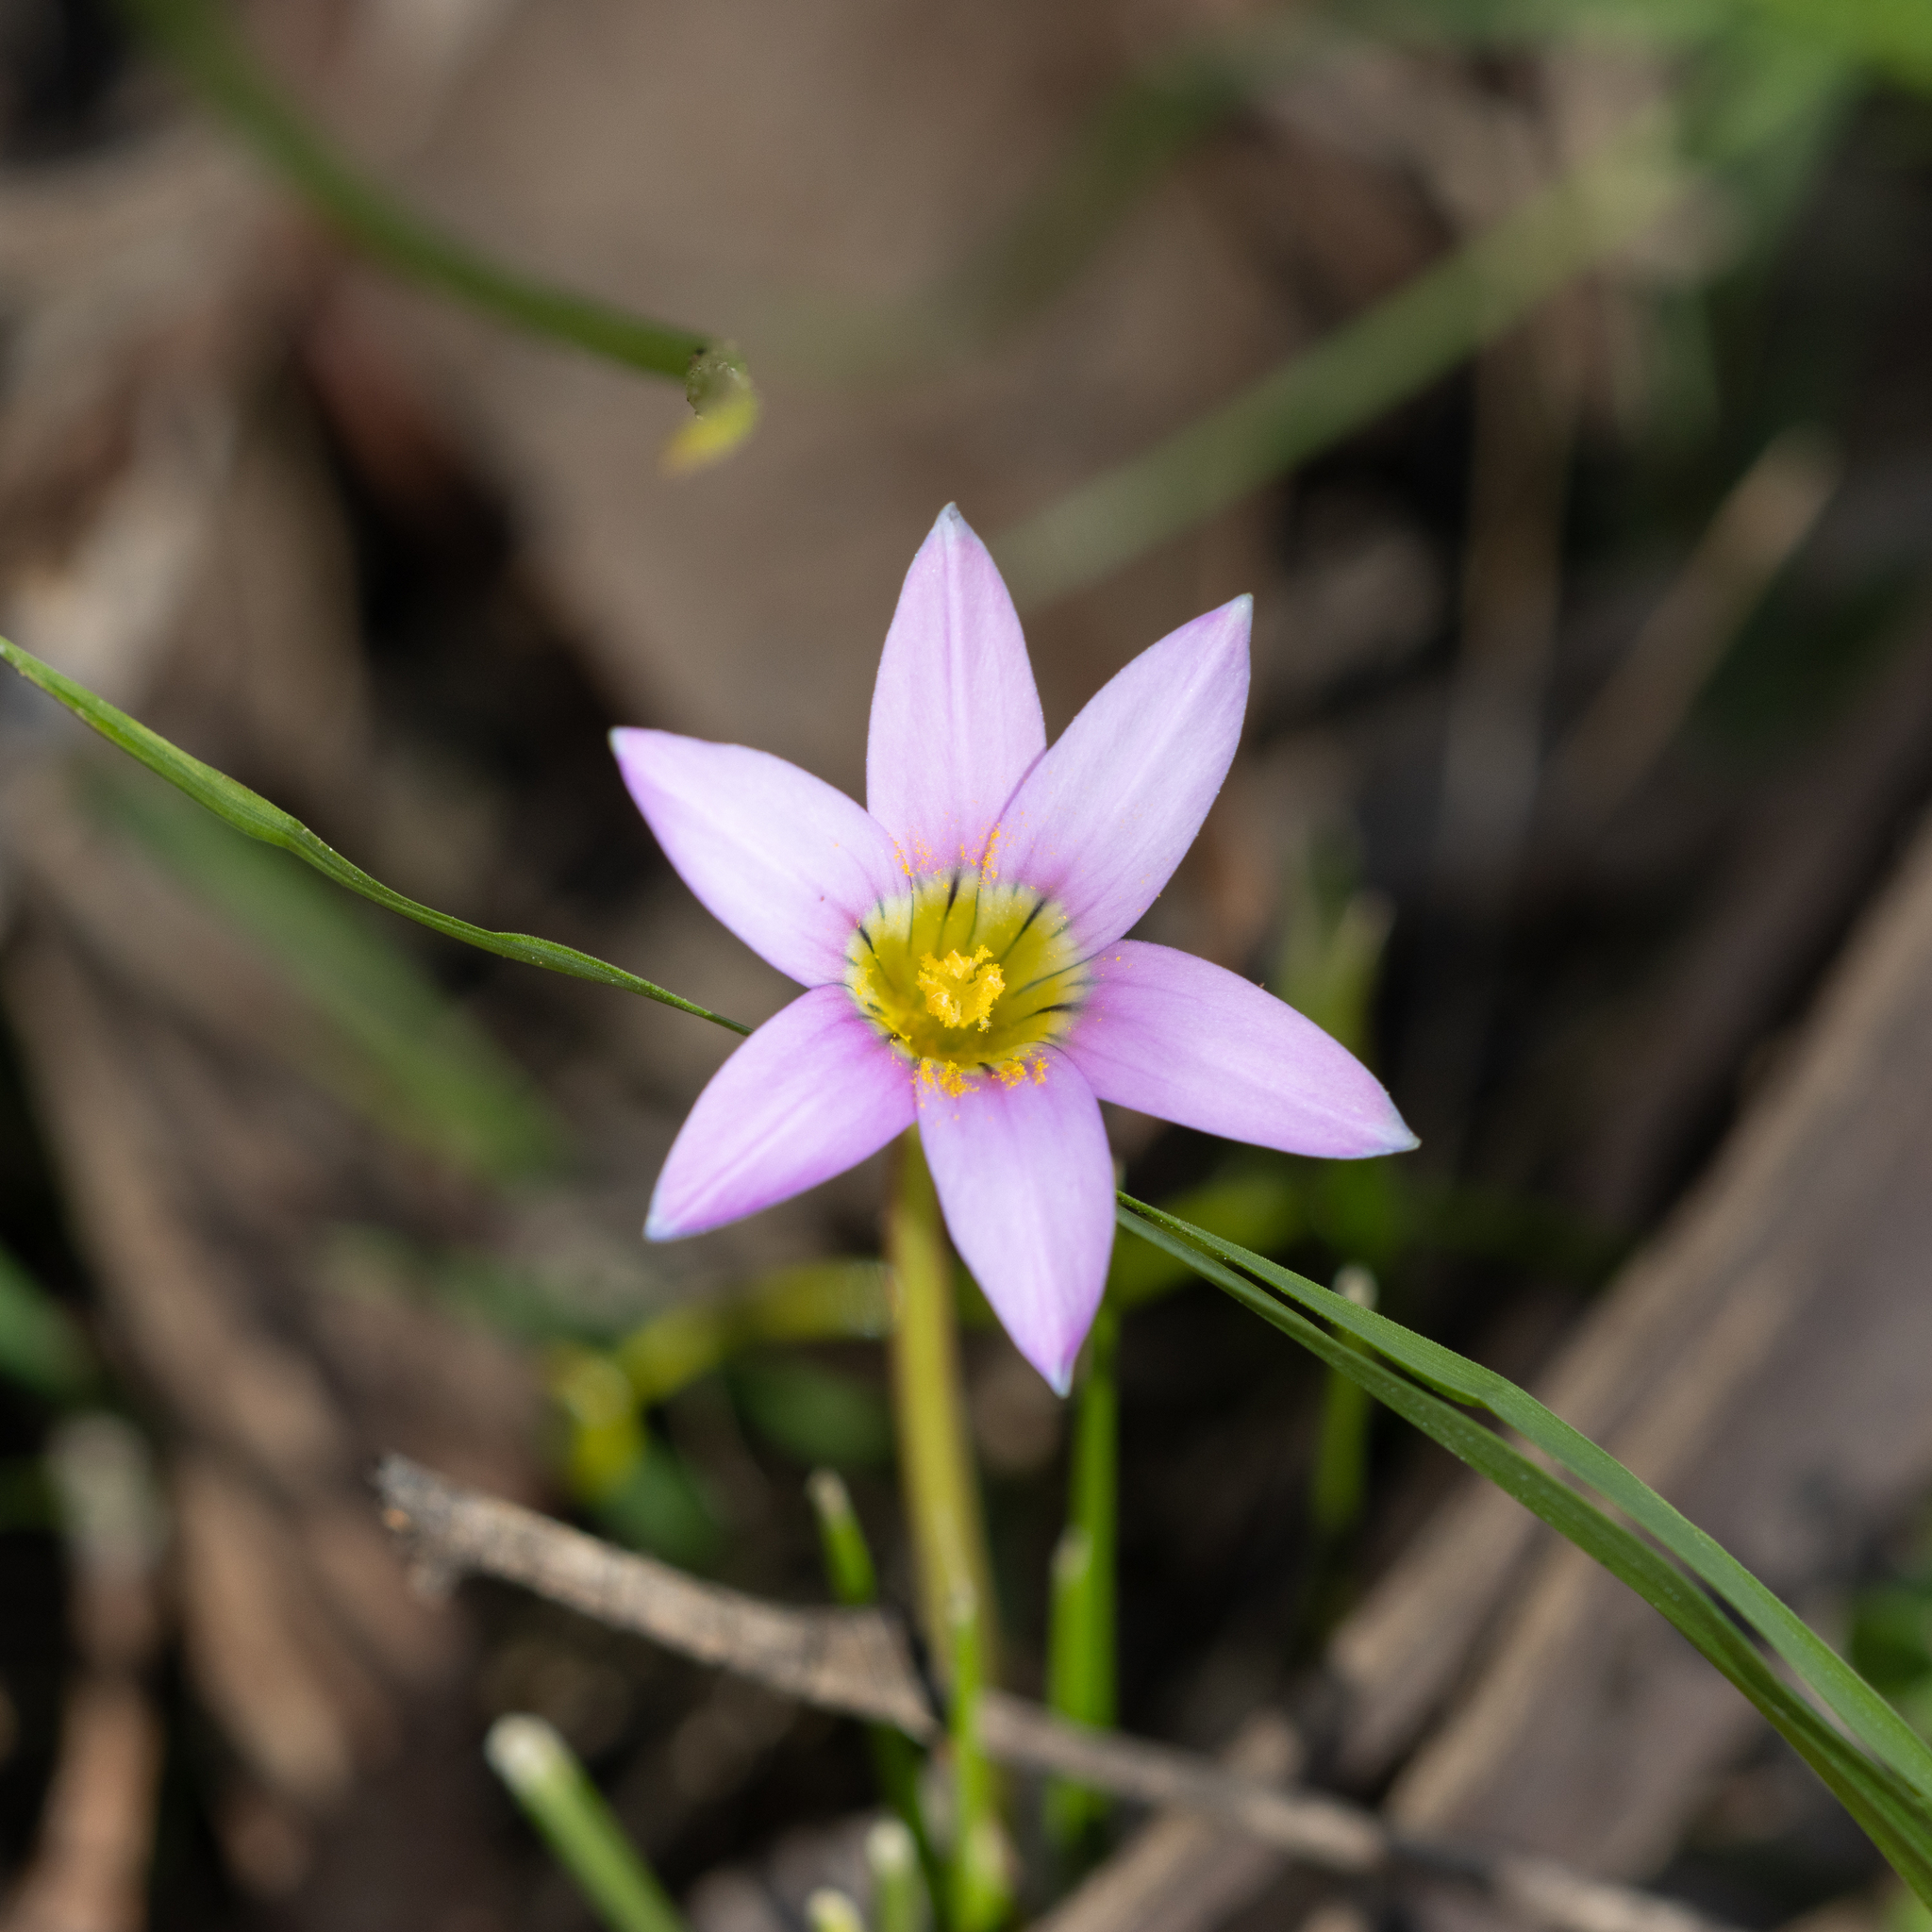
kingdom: Plantae
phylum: Tracheophyta
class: Liliopsida
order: Asparagales
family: Iridaceae
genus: Romulea
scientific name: Romulea rosea
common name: Oniongrass
